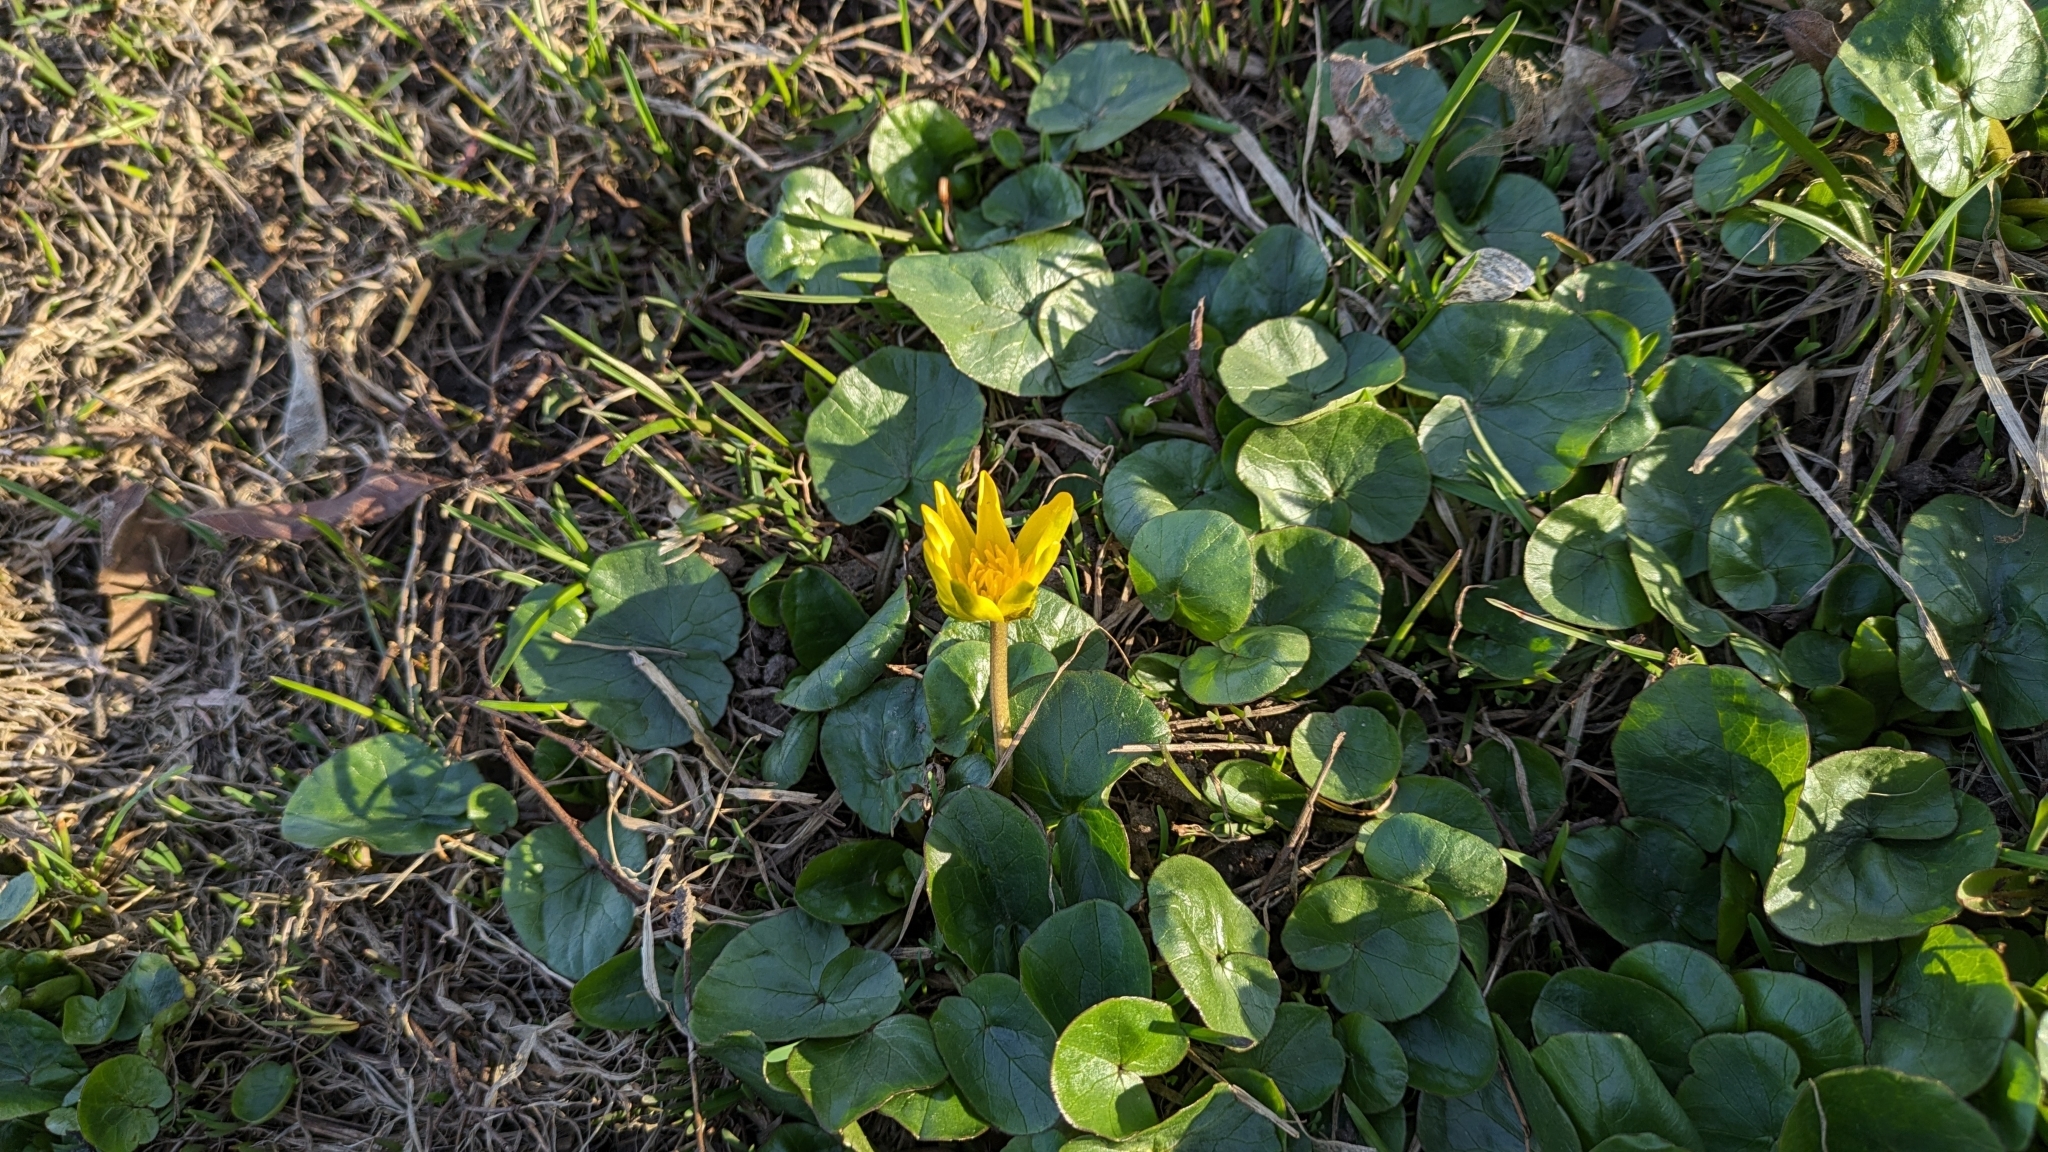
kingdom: Plantae
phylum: Tracheophyta
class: Magnoliopsida
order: Ranunculales
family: Ranunculaceae
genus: Ficaria
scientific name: Ficaria verna
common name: Lesser celandine
